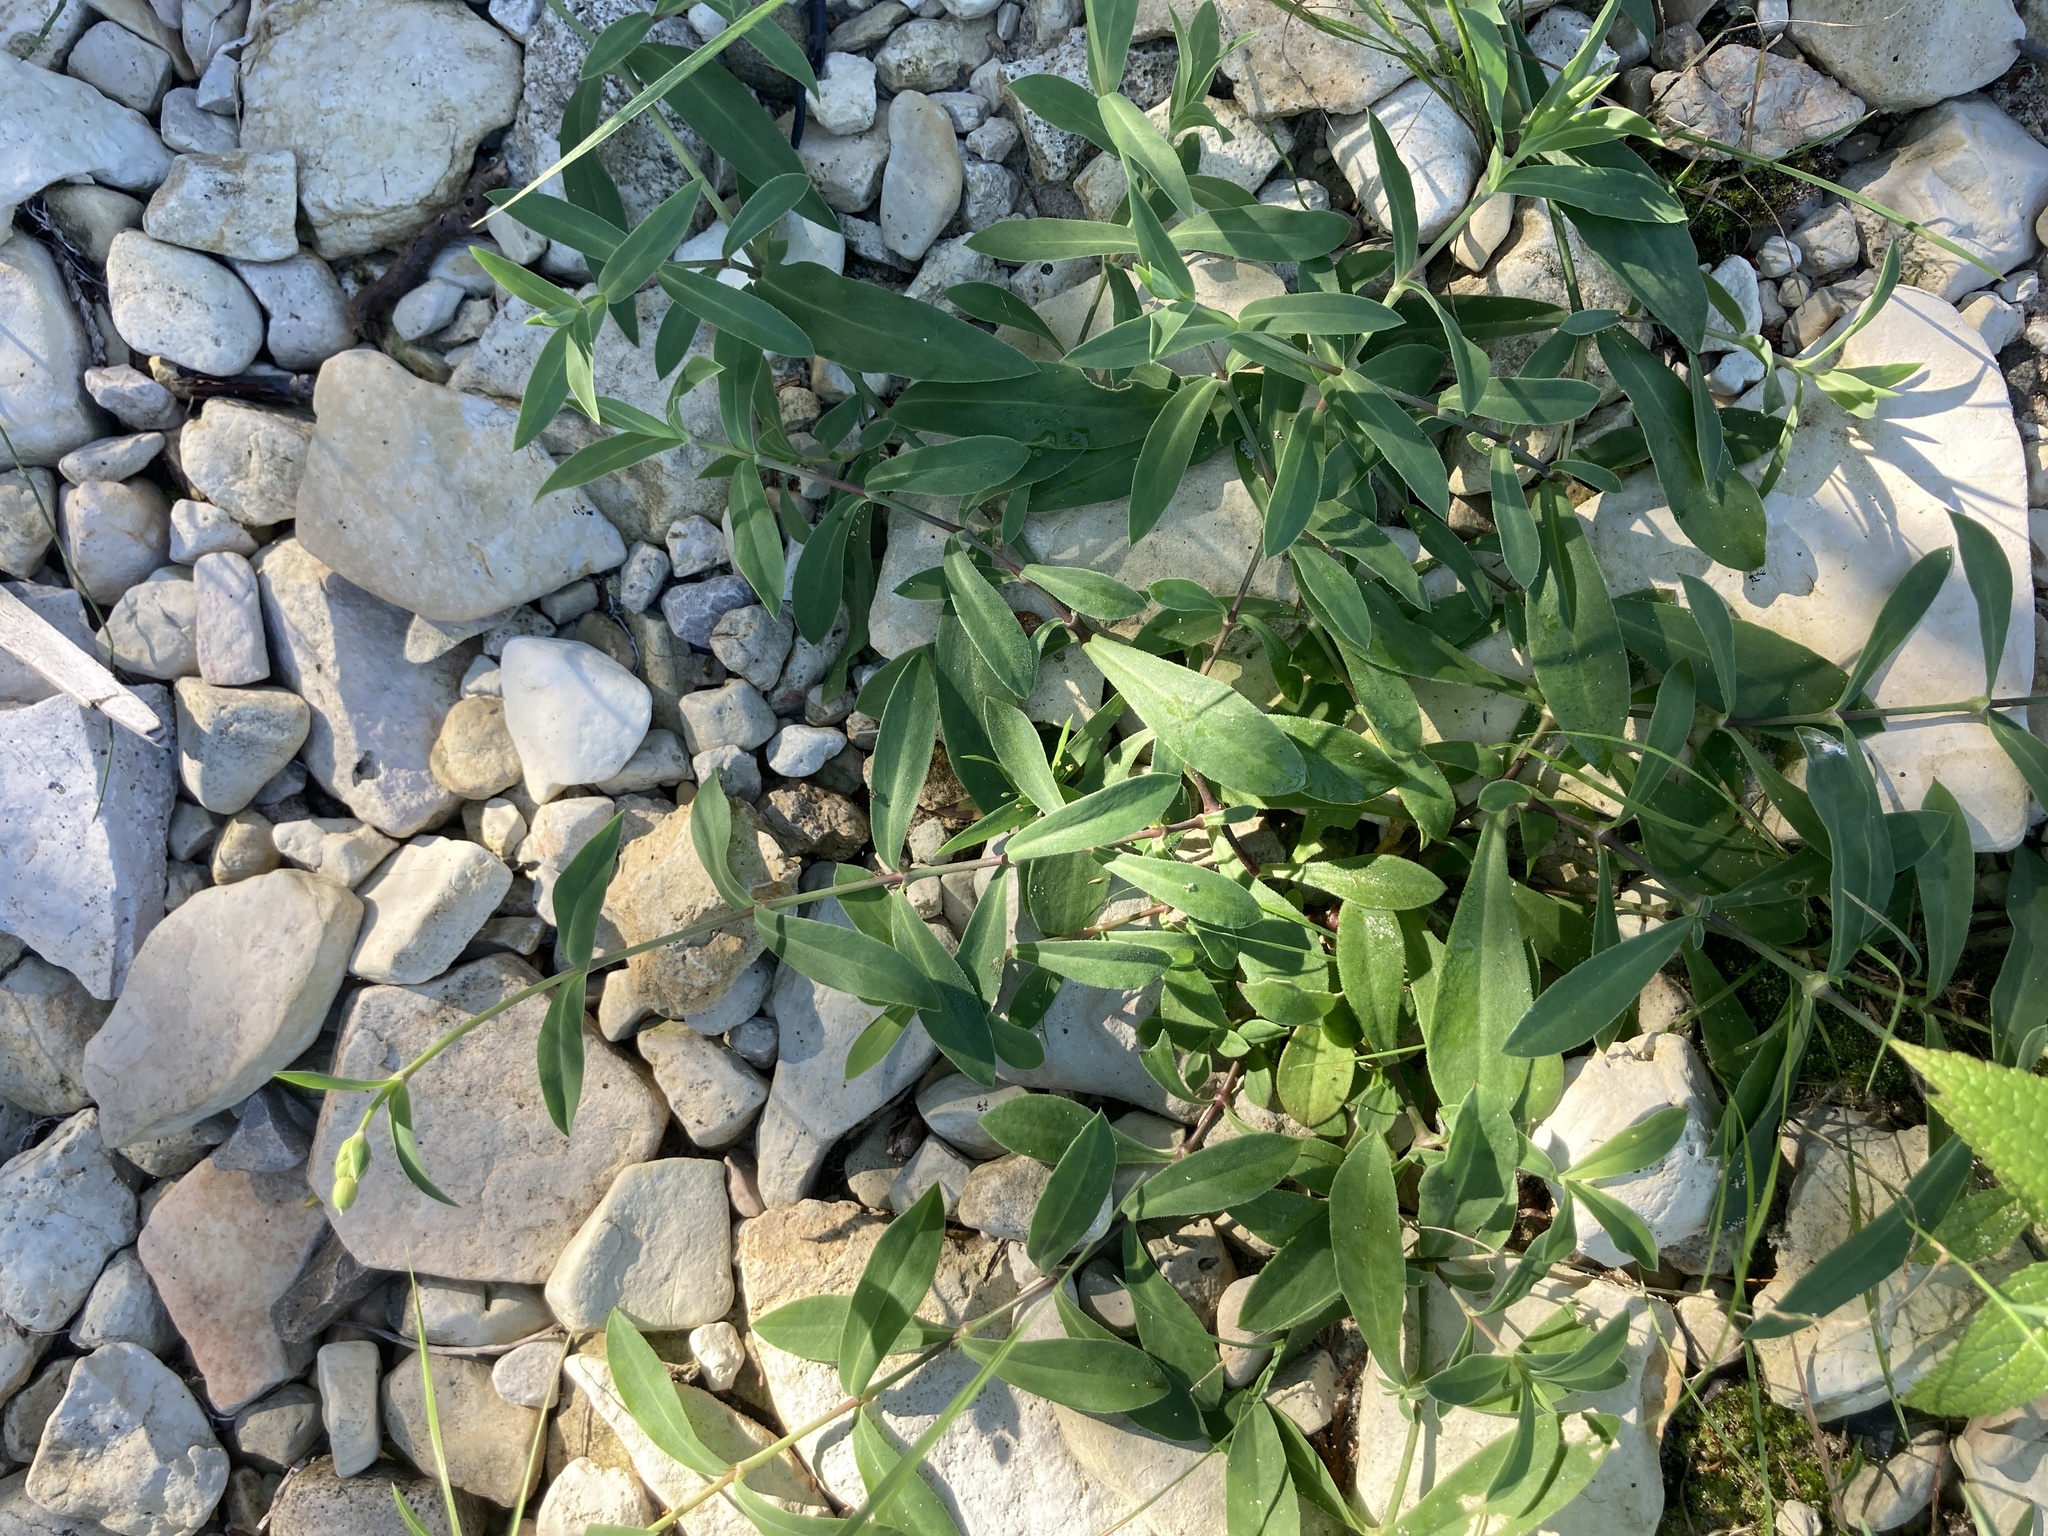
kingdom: Plantae
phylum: Tracheophyta
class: Magnoliopsida
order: Caryophyllales
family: Caryophyllaceae
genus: Silene
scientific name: Silene vulgaris
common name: Bladder campion
